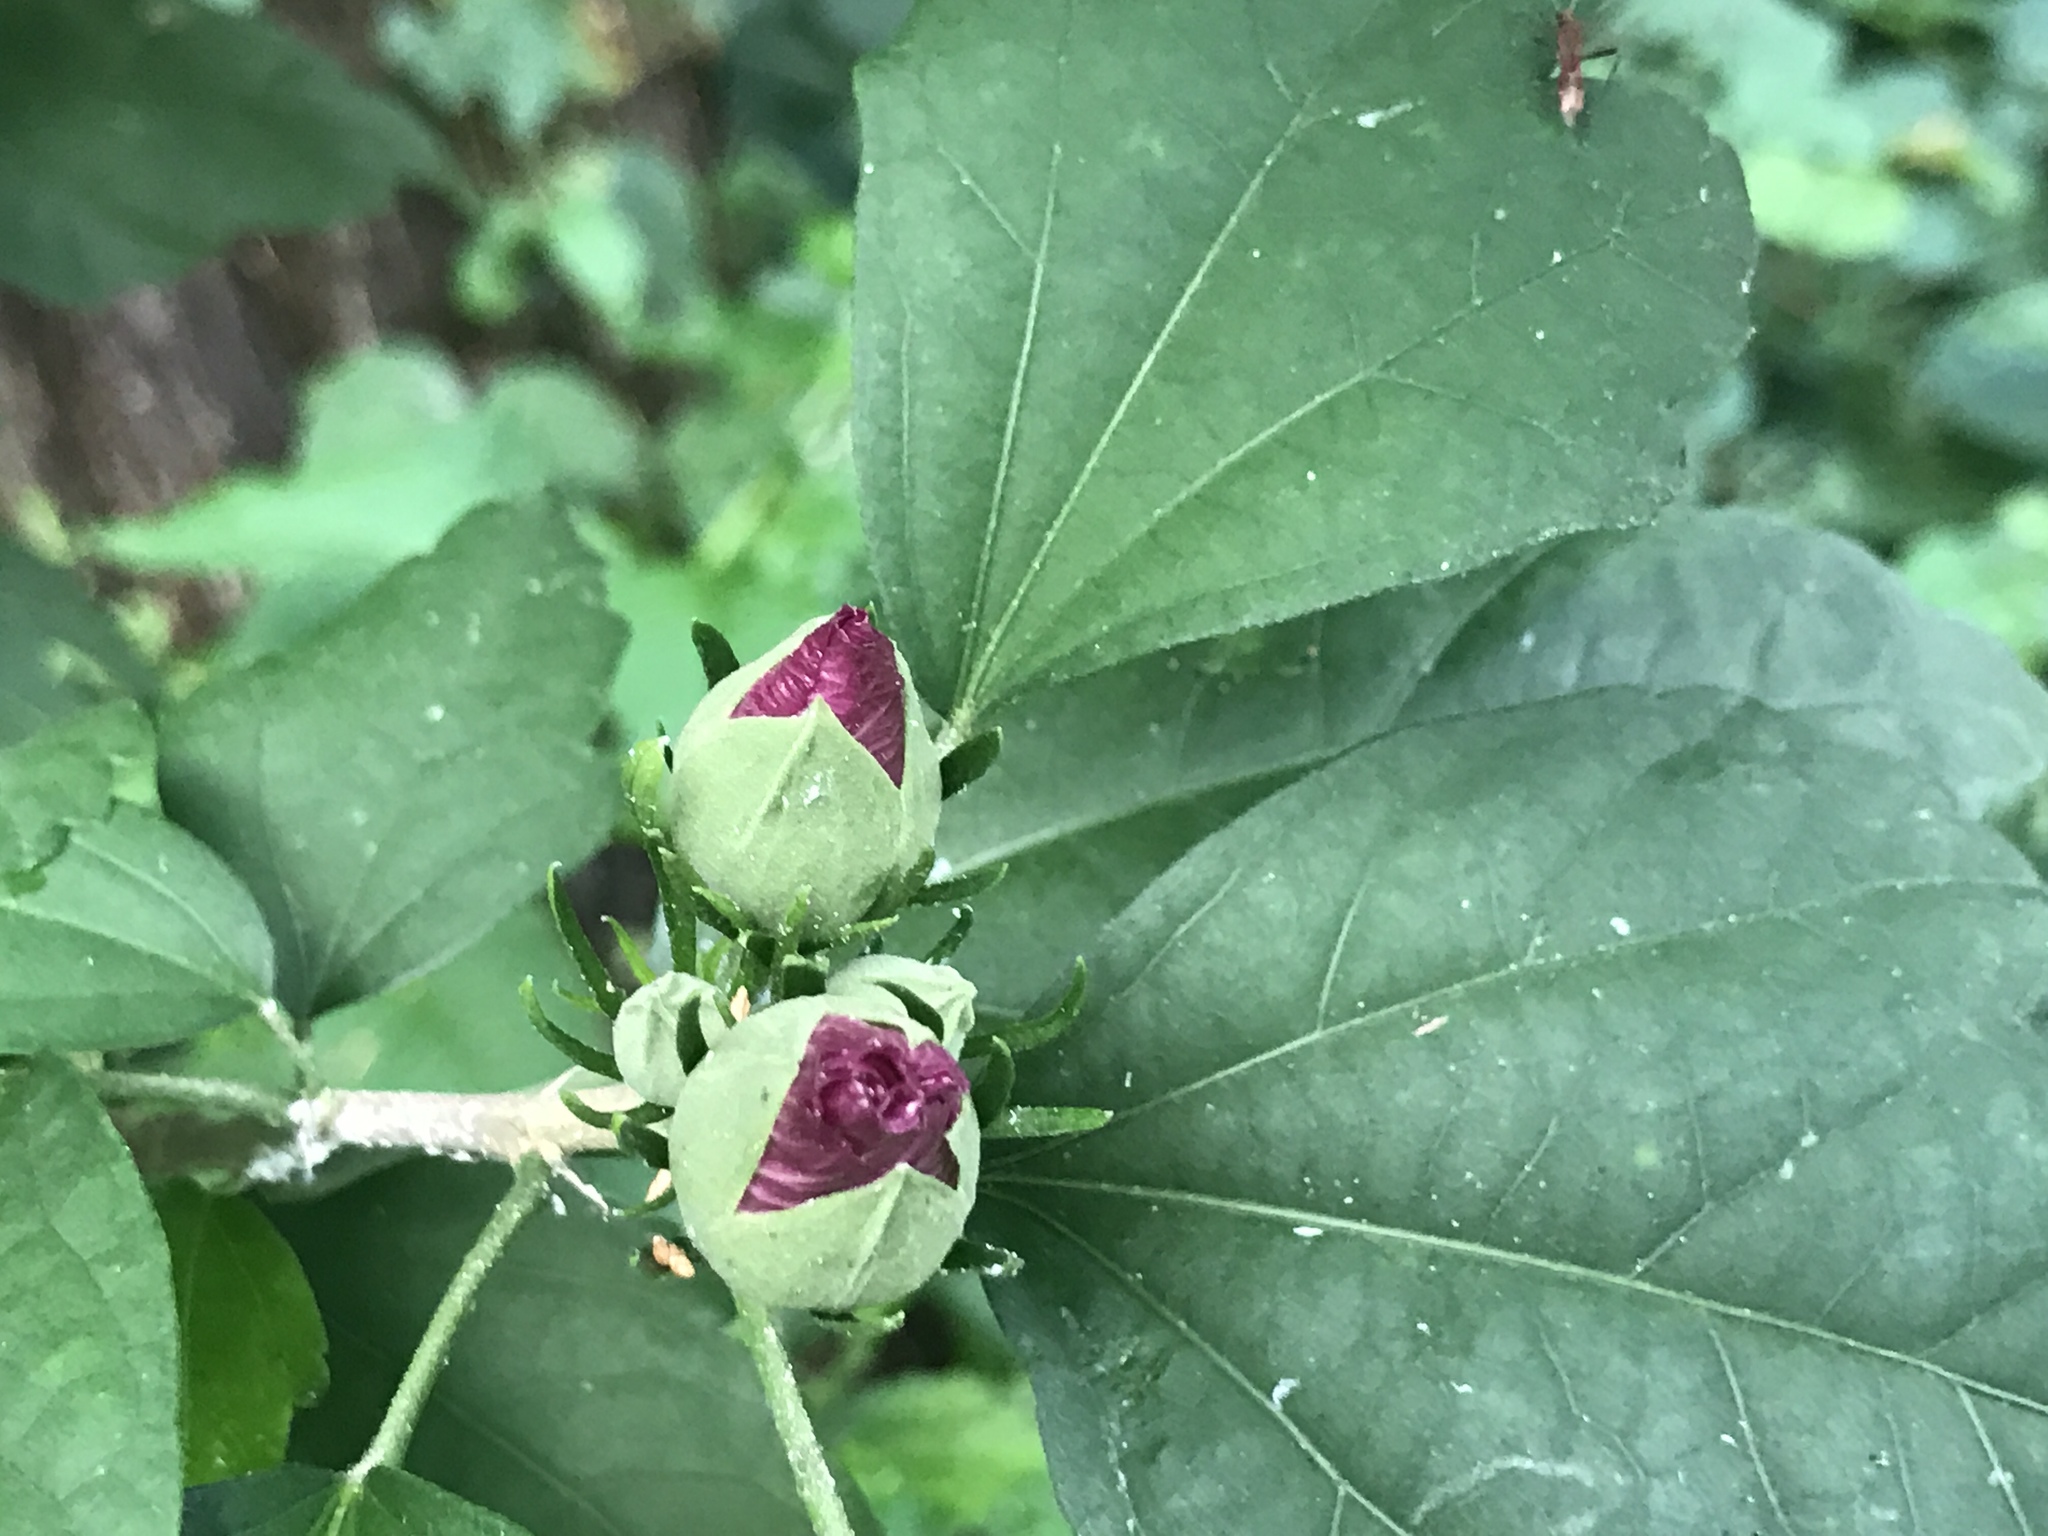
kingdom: Plantae
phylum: Tracheophyta
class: Magnoliopsida
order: Malvales
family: Malvaceae
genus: Hibiscus
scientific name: Hibiscus syriacus
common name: Syrian ketmia
